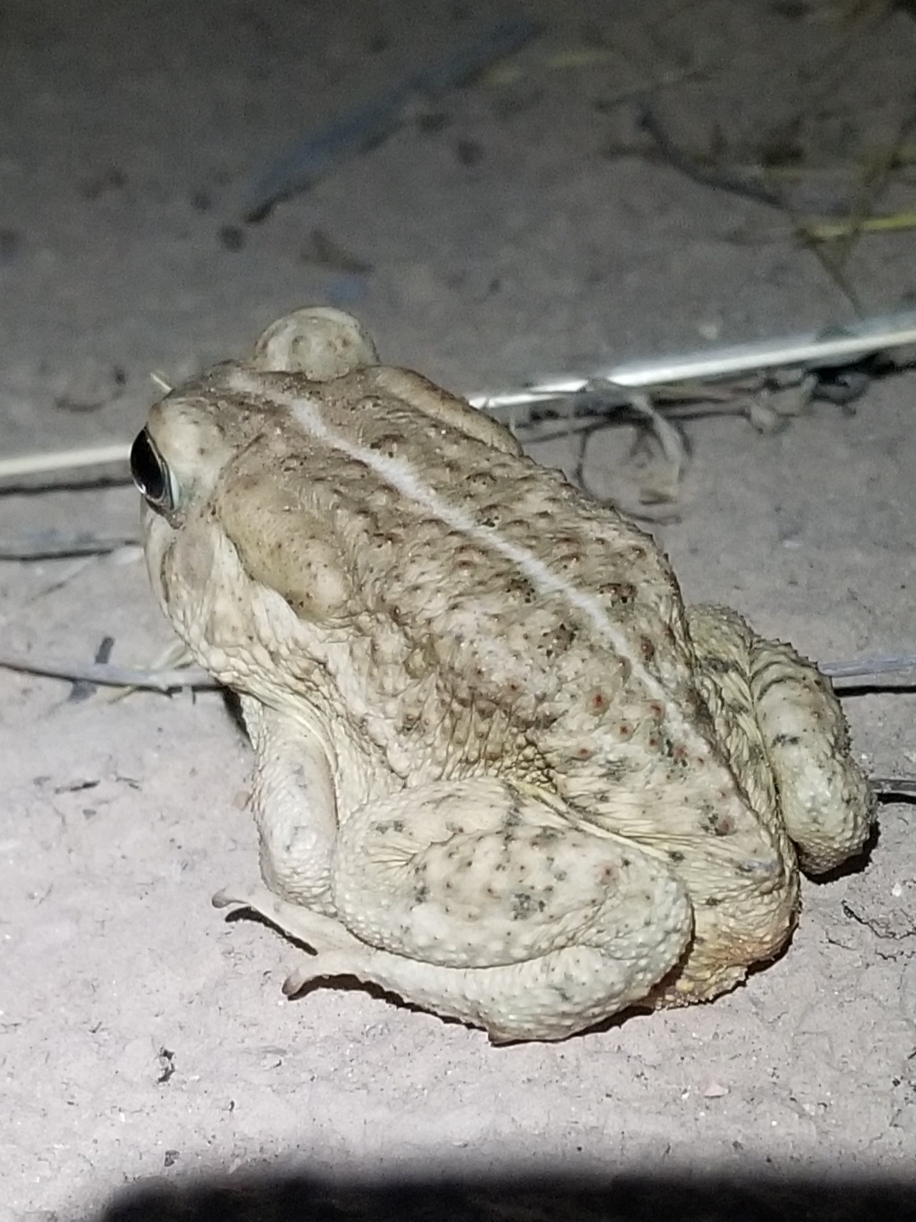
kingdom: Animalia
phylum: Chordata
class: Amphibia
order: Anura
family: Bufonidae
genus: Anaxyrus
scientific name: Anaxyrus woodhousii
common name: Woodhouse's toad
